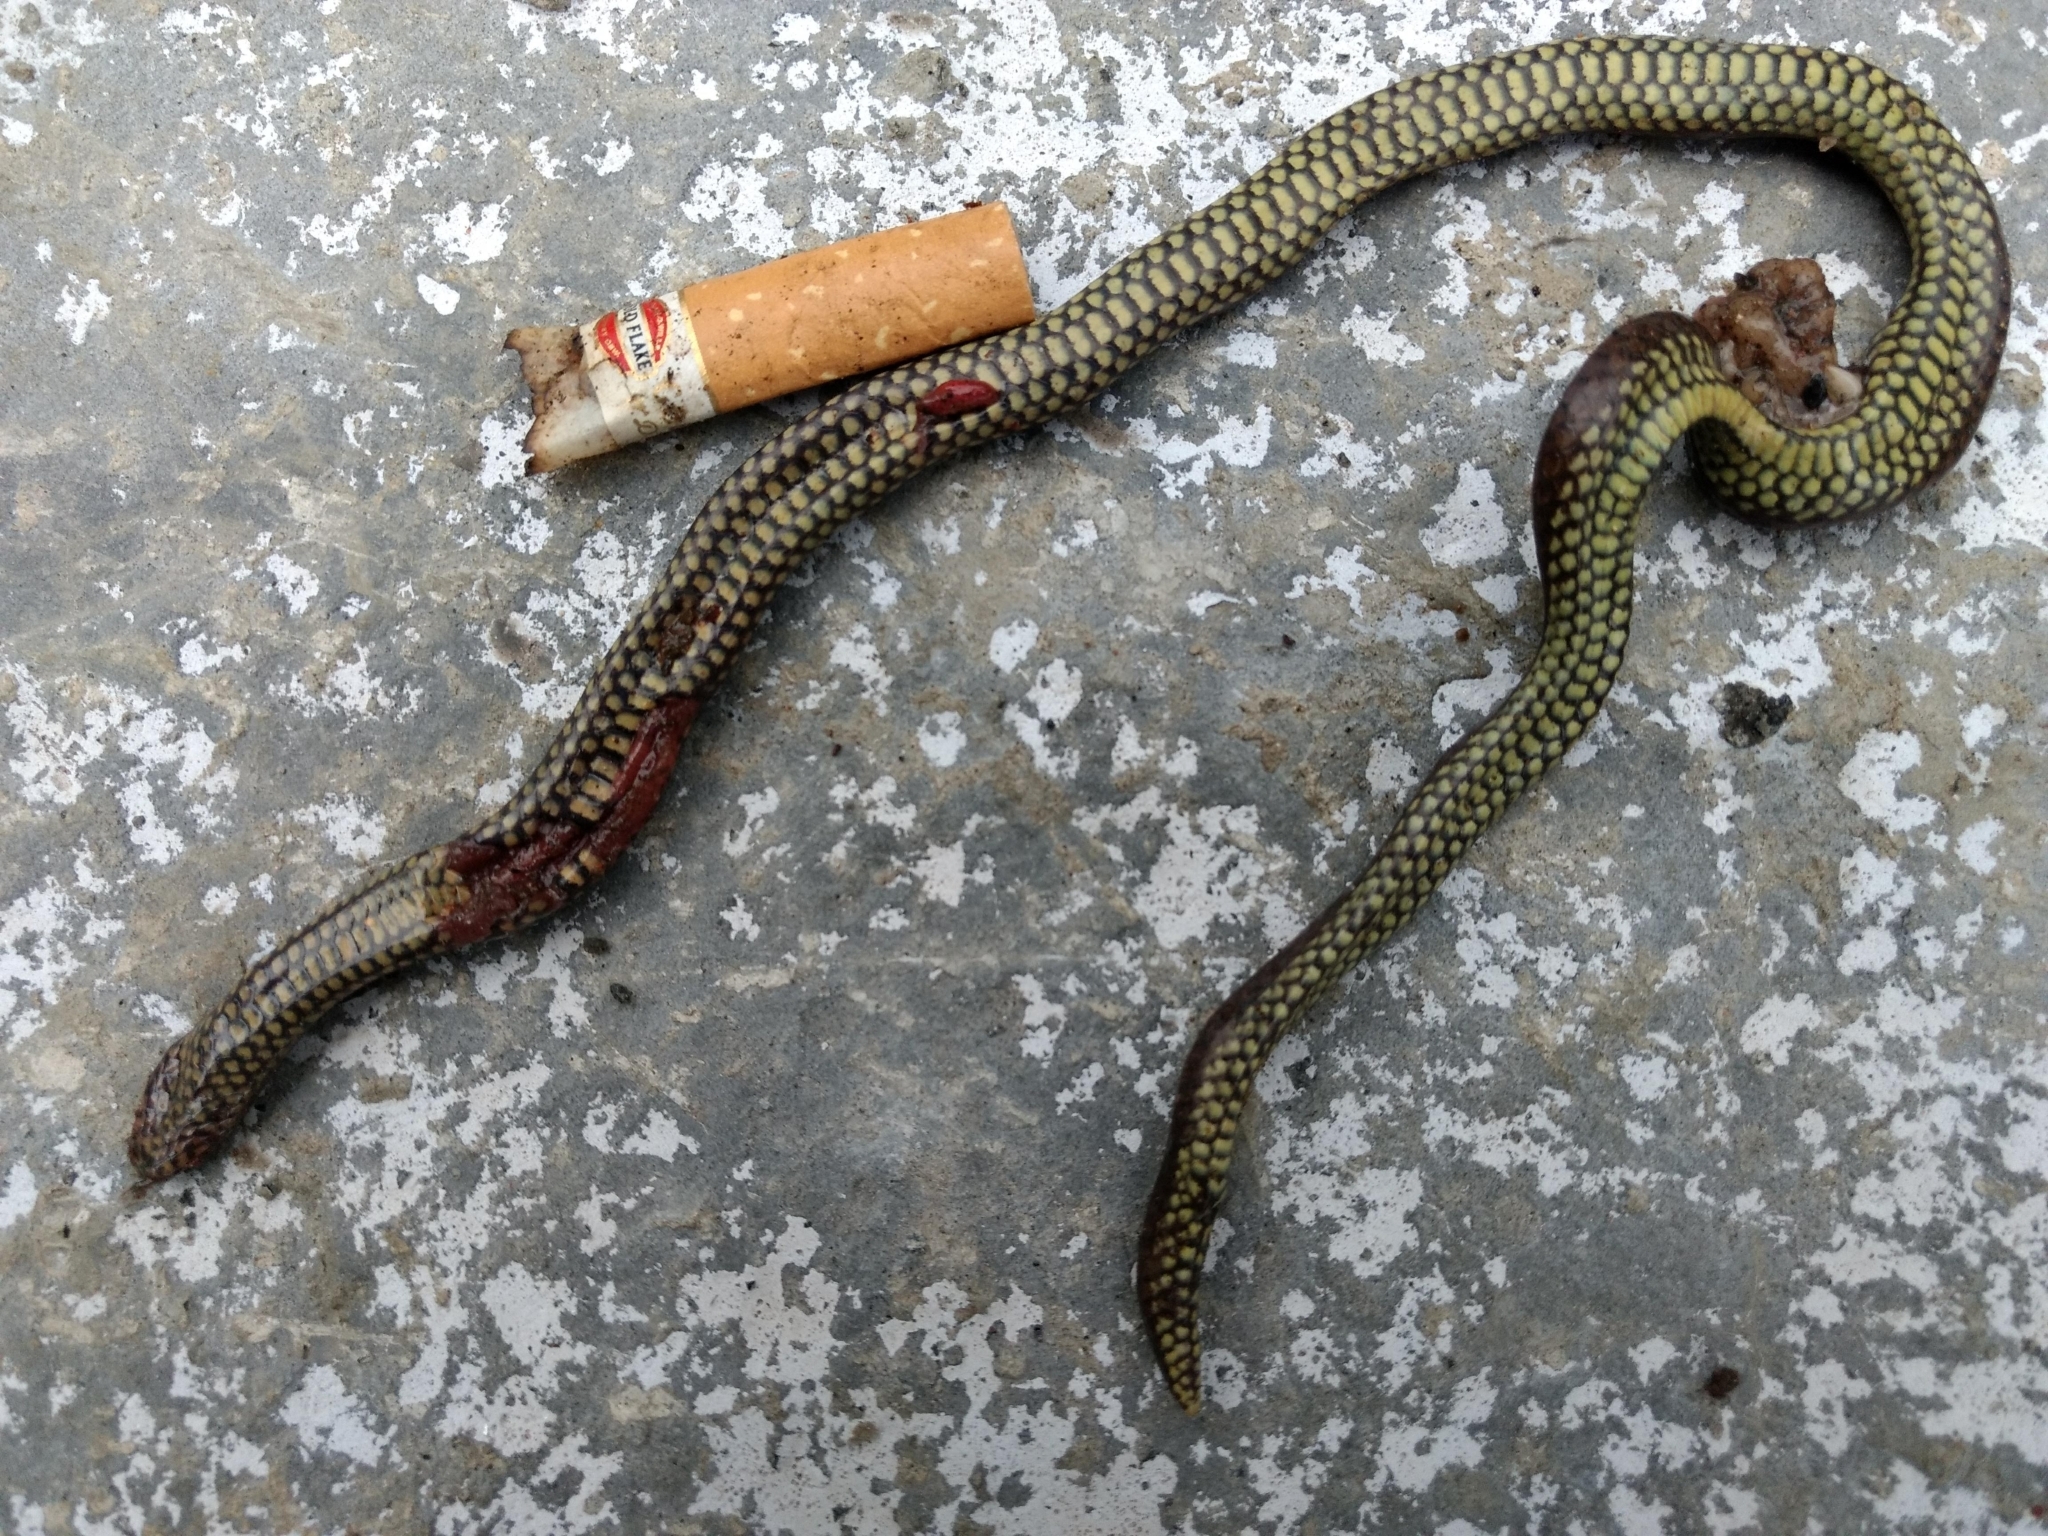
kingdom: Animalia
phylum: Chordata
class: Squamata
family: Uropeltidae
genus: Platyplectrurus
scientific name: Platyplectrurus madurensis
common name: Travancore hills thorntail snake
